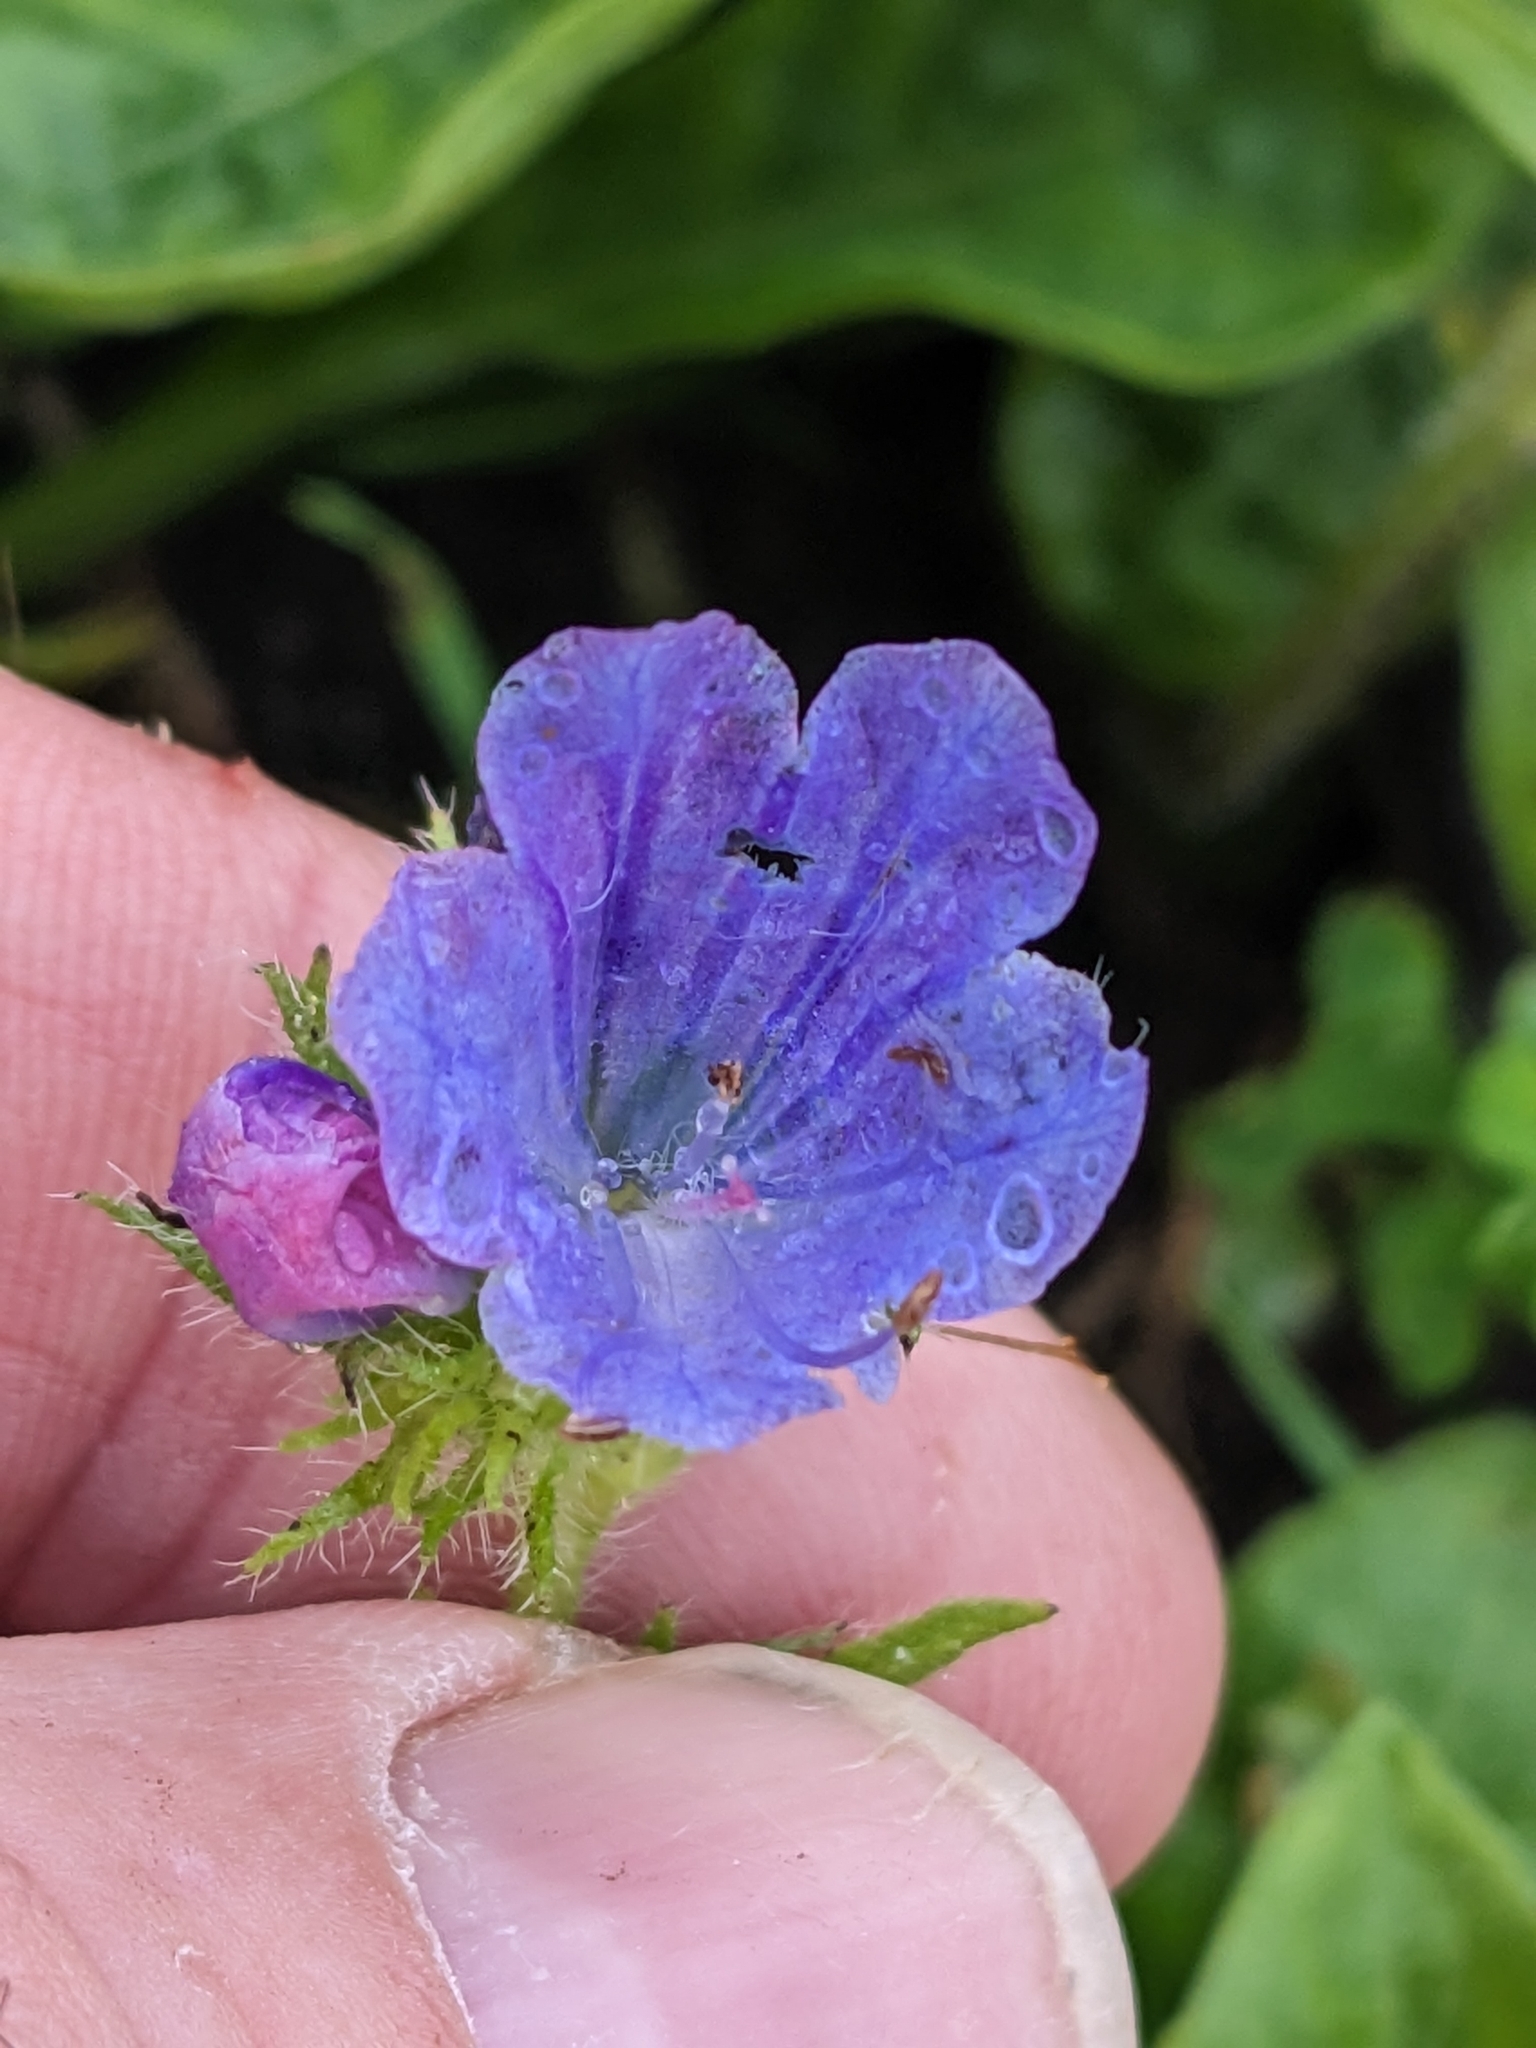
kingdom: Plantae
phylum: Tracheophyta
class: Magnoliopsida
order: Boraginales
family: Boraginaceae
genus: Echium
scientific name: Echium plantagineum
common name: Purple viper's-bugloss
